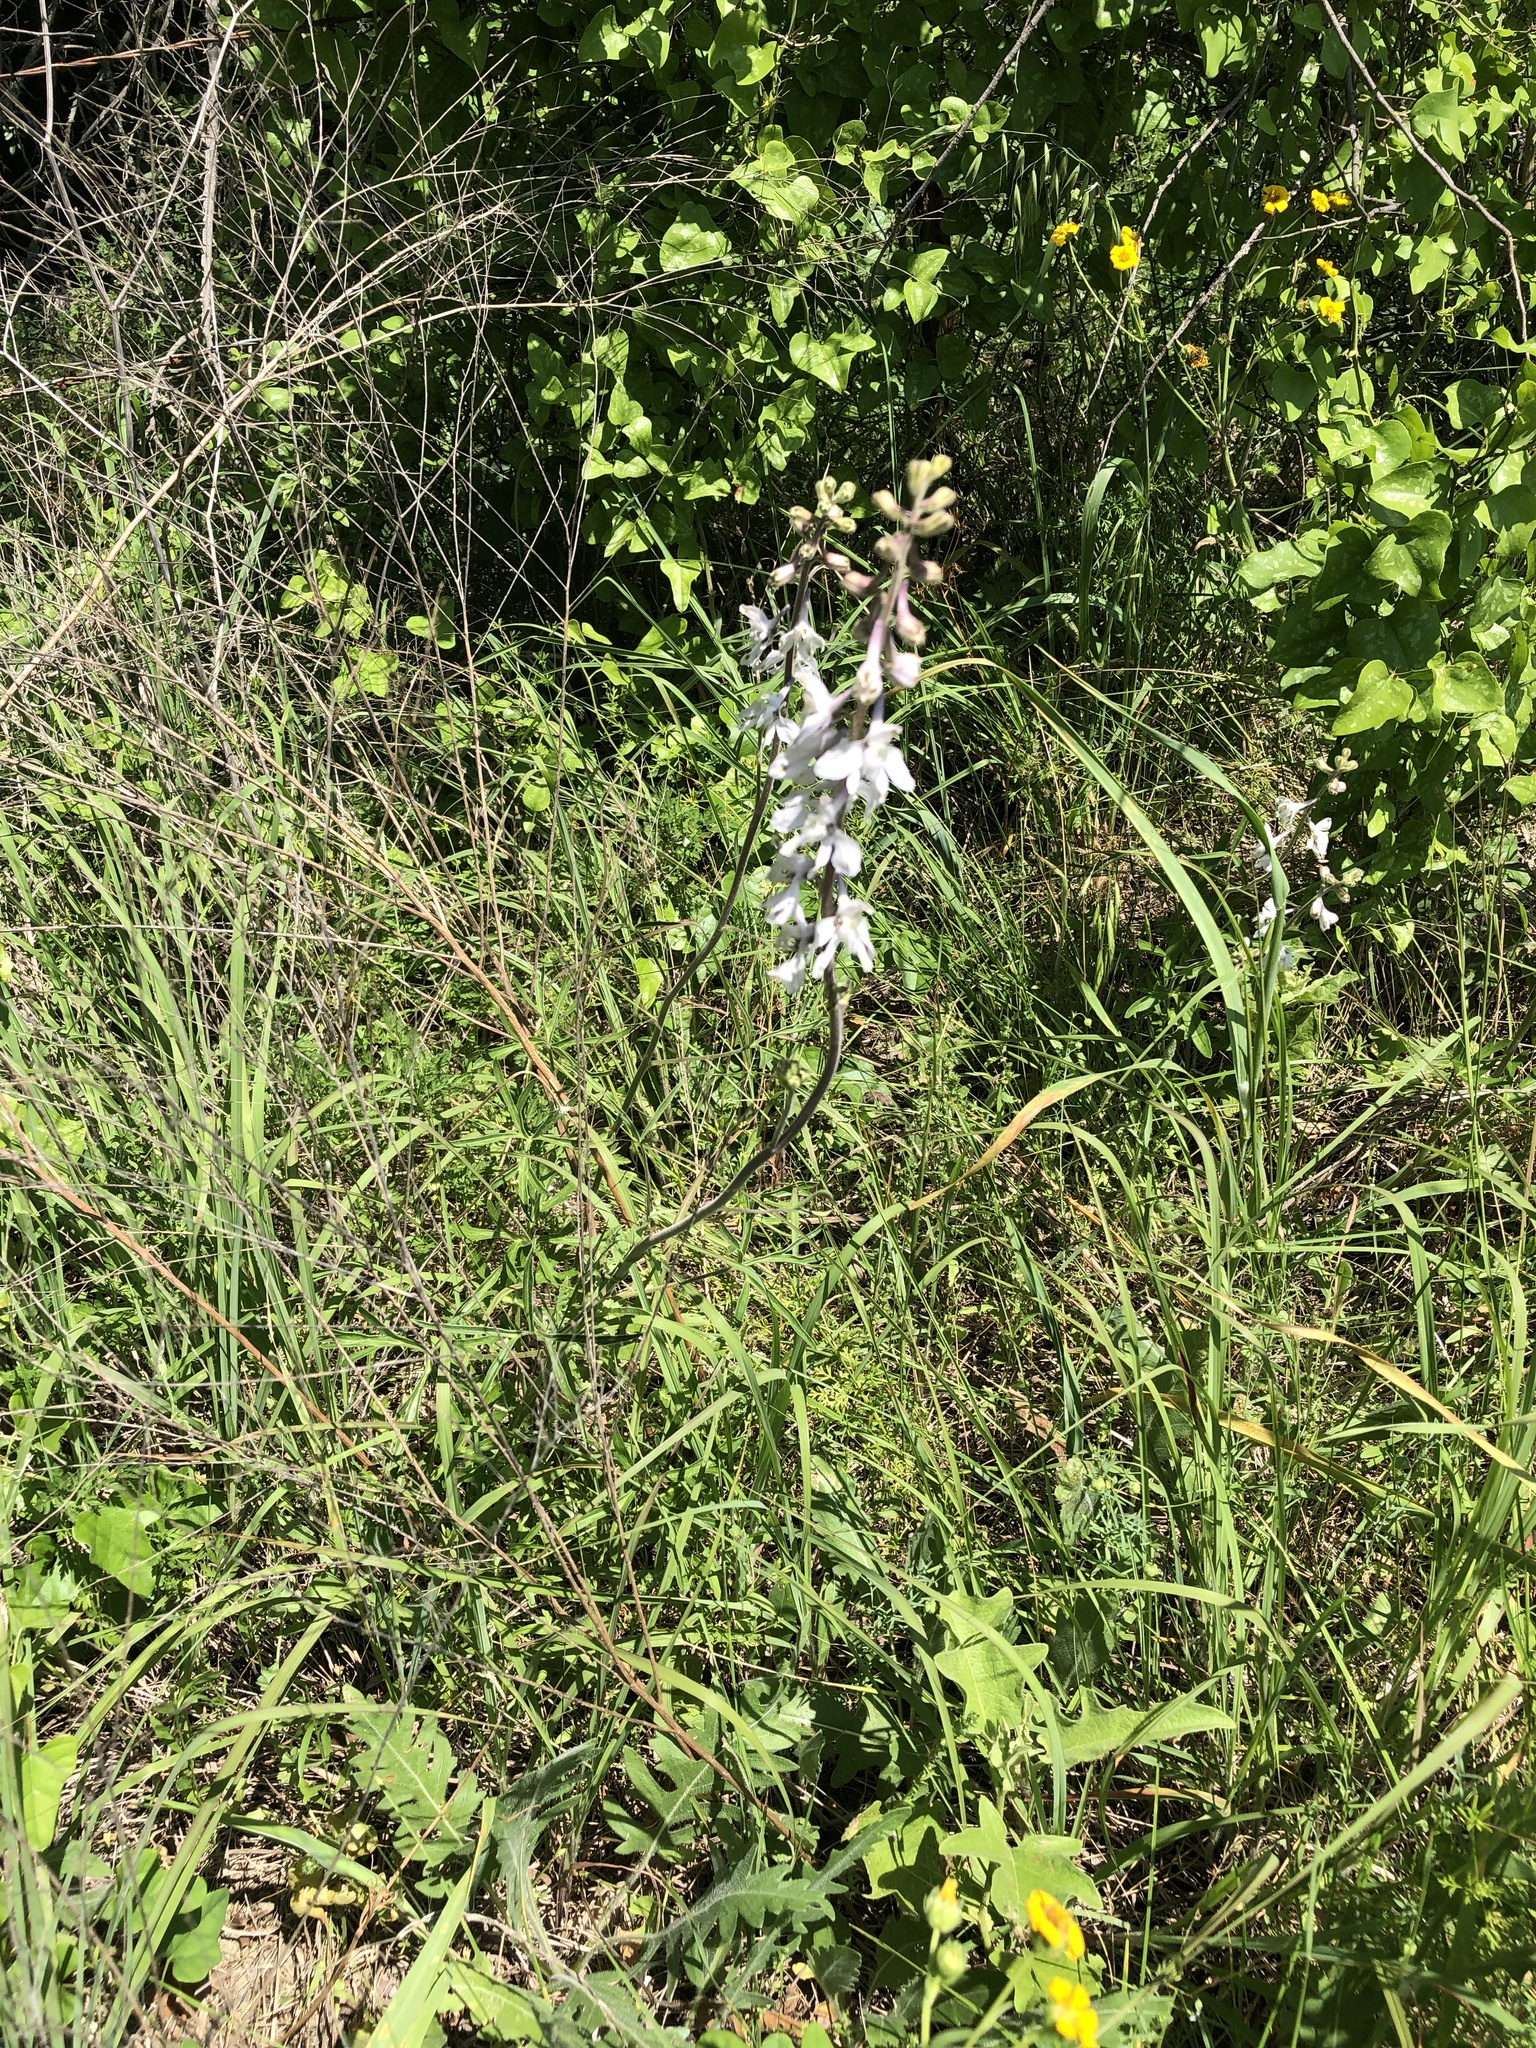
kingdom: Plantae
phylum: Tracheophyta
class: Magnoliopsida
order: Ranunculales
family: Ranunculaceae
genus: Delphinium
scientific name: Delphinium carolinianum
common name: Carolina larkspur
